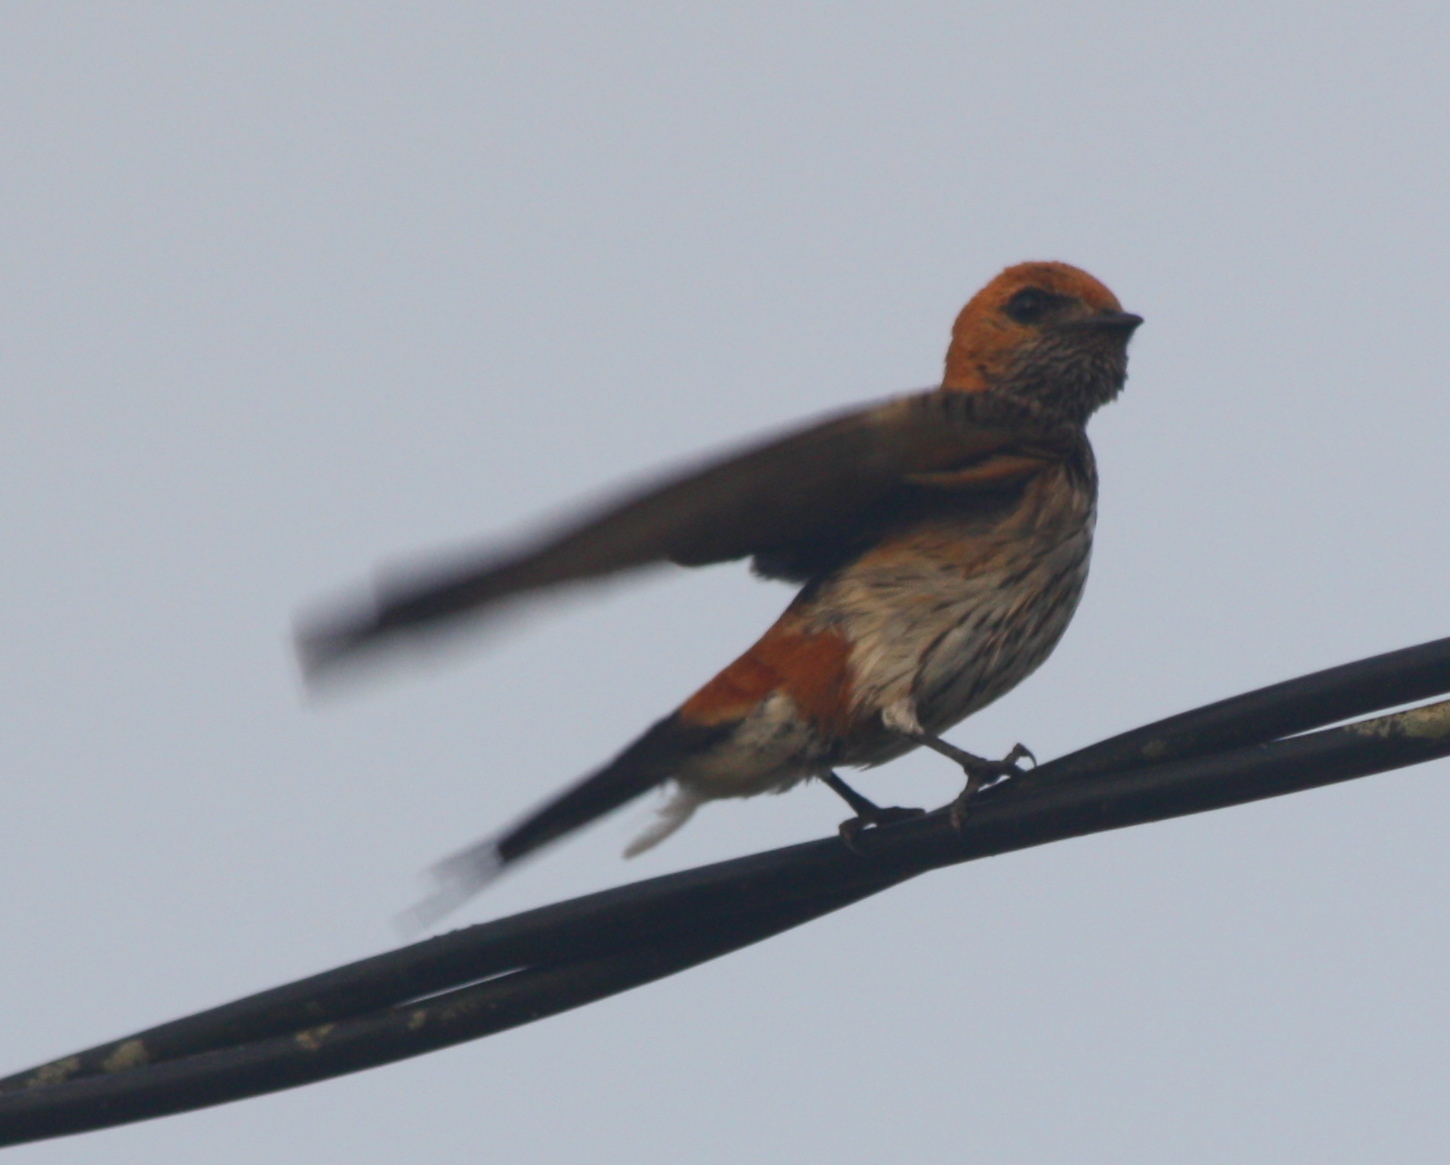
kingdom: Animalia
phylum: Chordata
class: Aves
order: Passeriformes
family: Hirundinidae
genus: Cecropis
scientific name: Cecropis abyssinica
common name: Lesser striped-swallow
